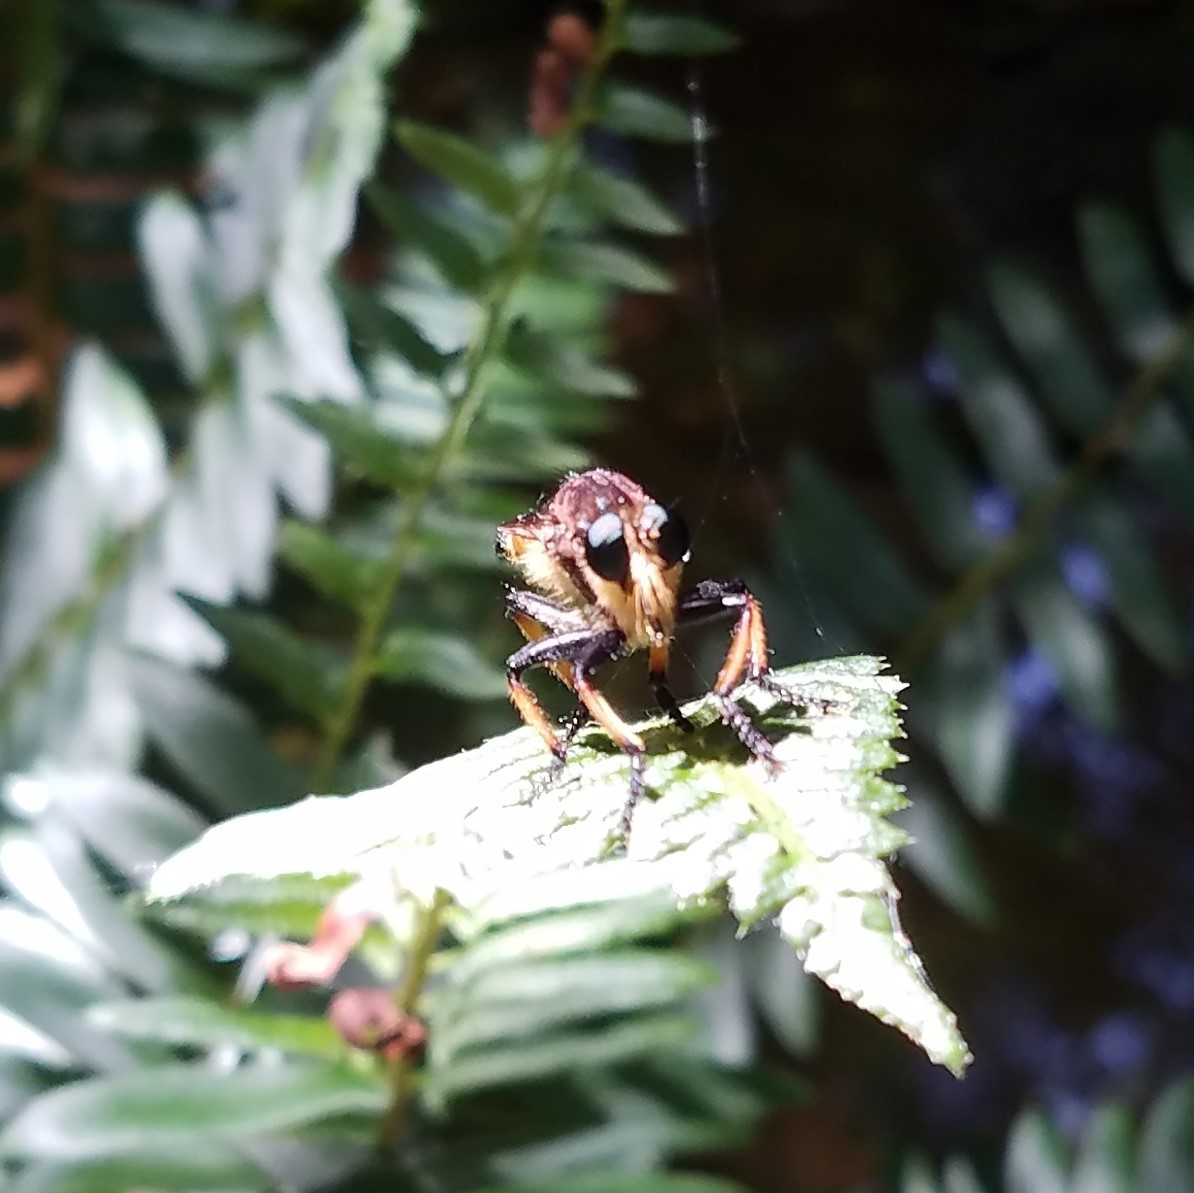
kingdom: Animalia
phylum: Arthropoda
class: Insecta
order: Diptera
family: Asilidae
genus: Promachus
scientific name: Promachus rufipes
